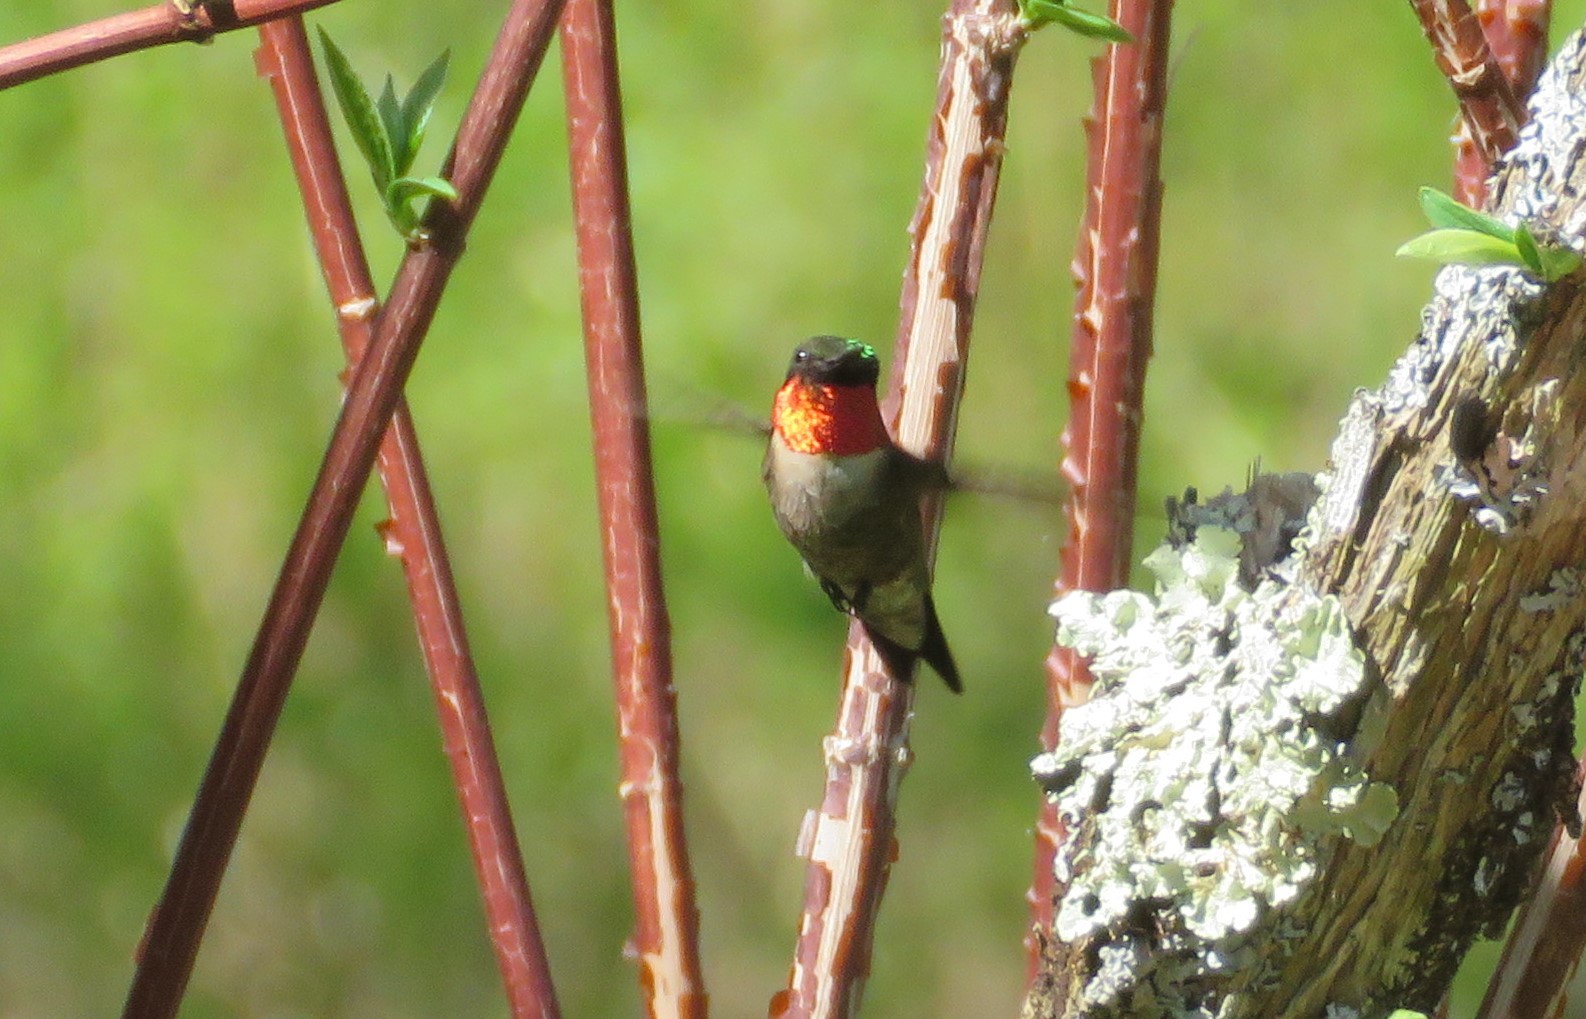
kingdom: Animalia
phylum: Chordata
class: Aves
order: Apodiformes
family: Trochilidae
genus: Archilochus
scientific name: Archilochus colubris
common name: Ruby-throated hummingbird
